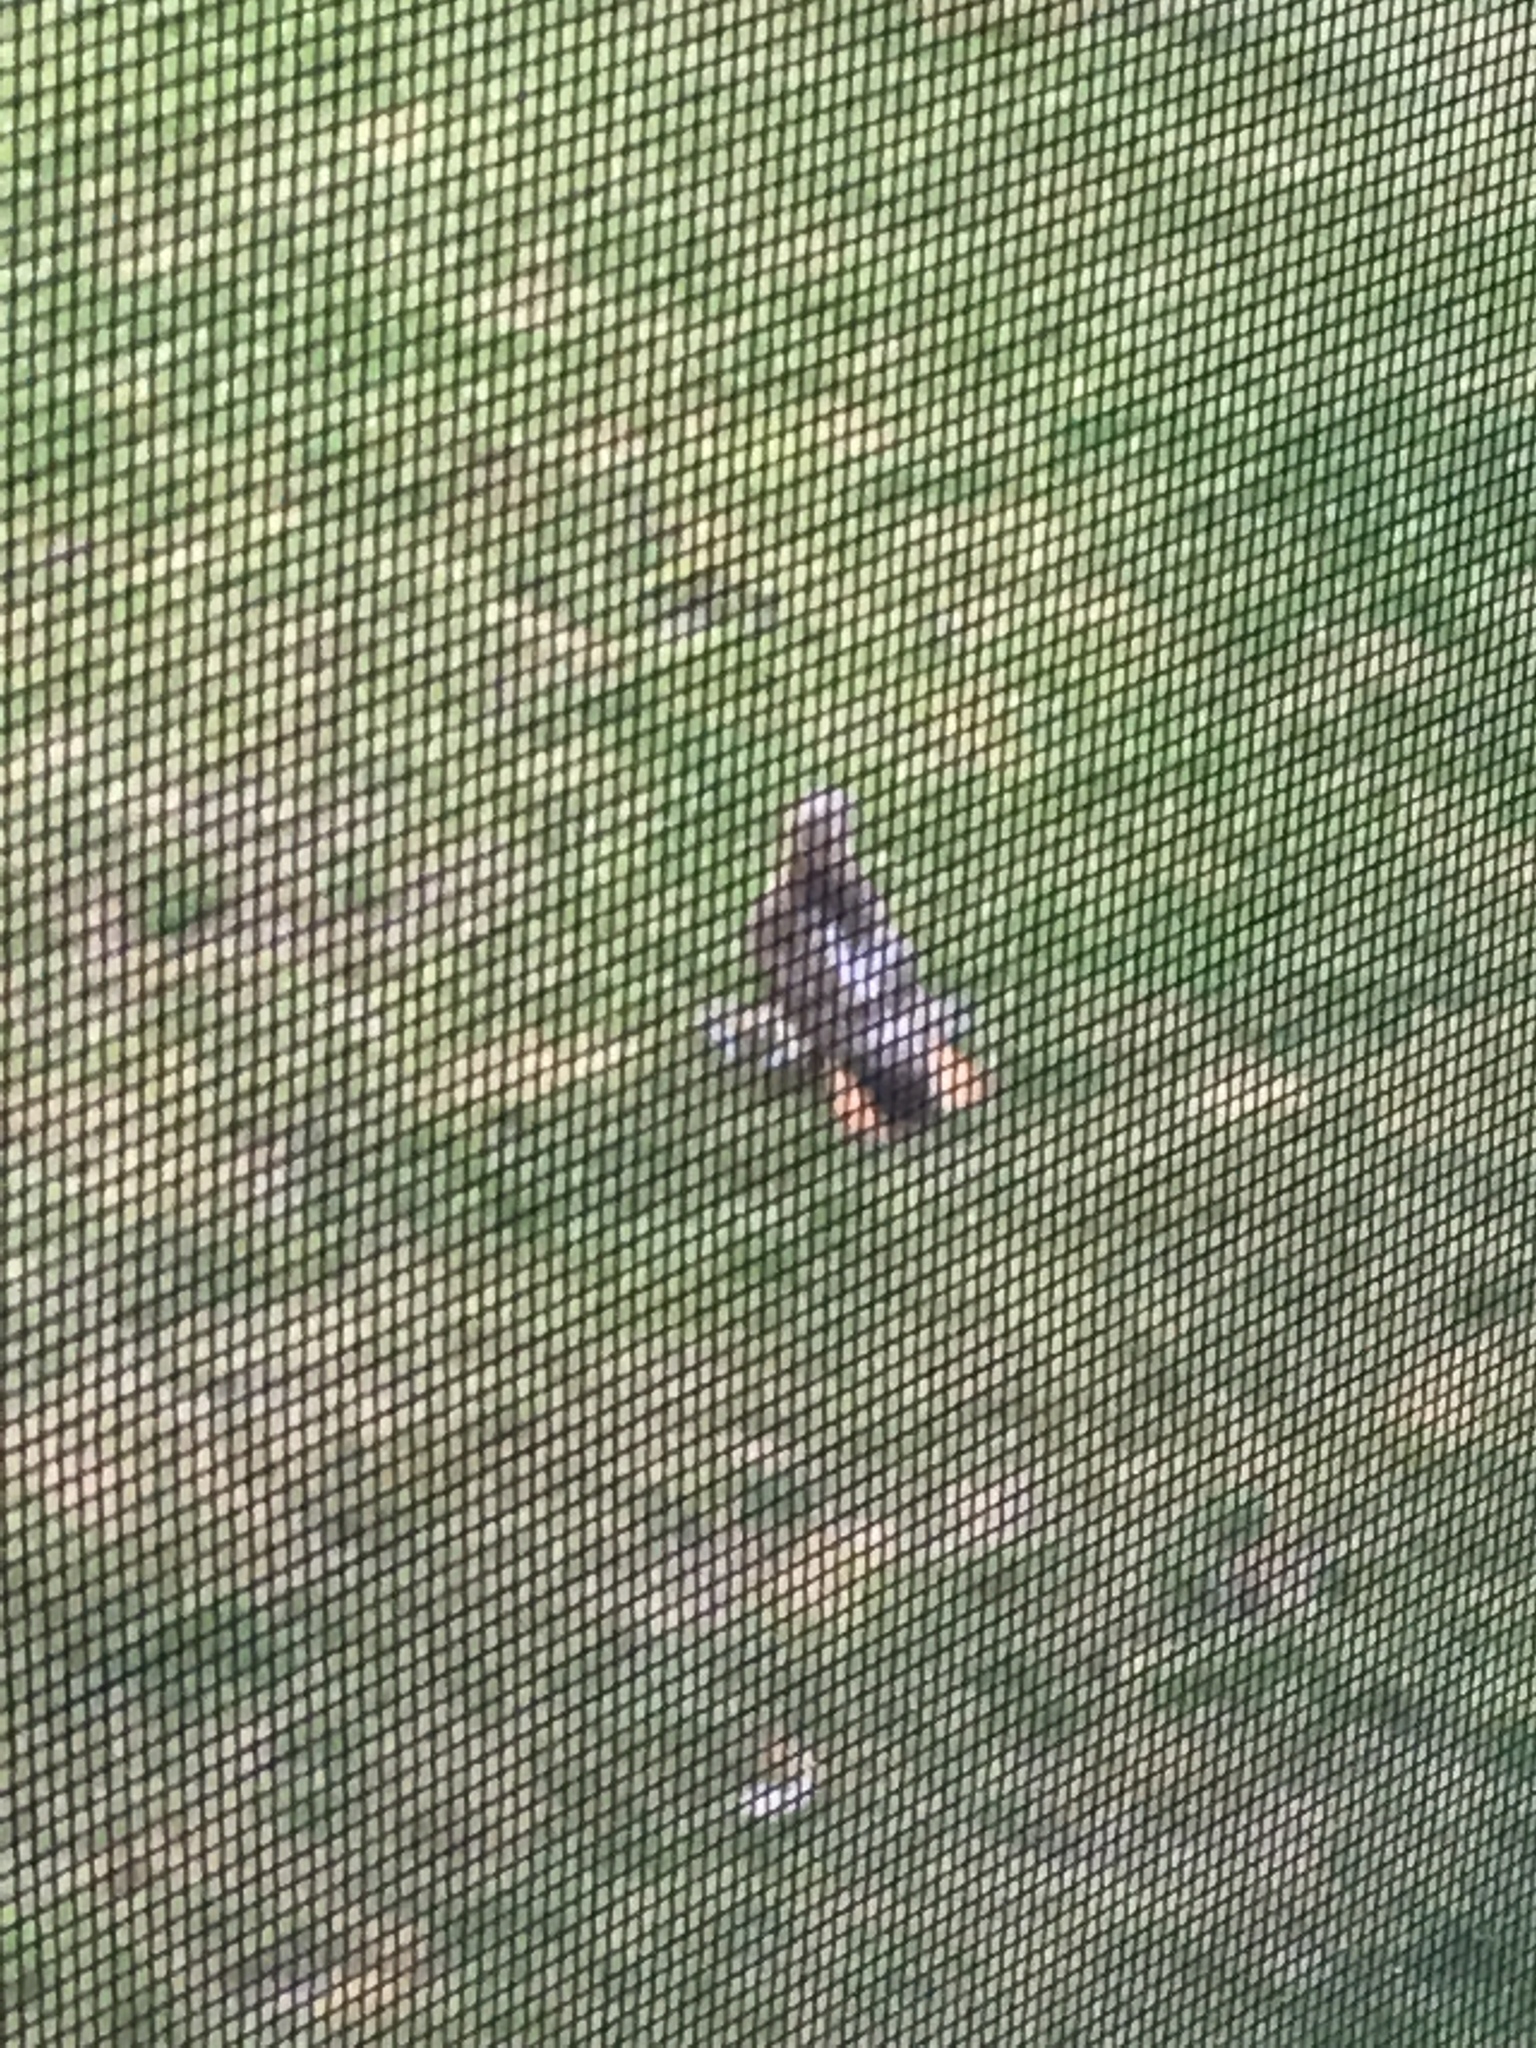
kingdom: Animalia
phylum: Chordata
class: Aves
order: Accipitriformes
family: Accipitridae
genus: Buteo
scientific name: Buteo jamaicensis
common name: Red-tailed hawk
